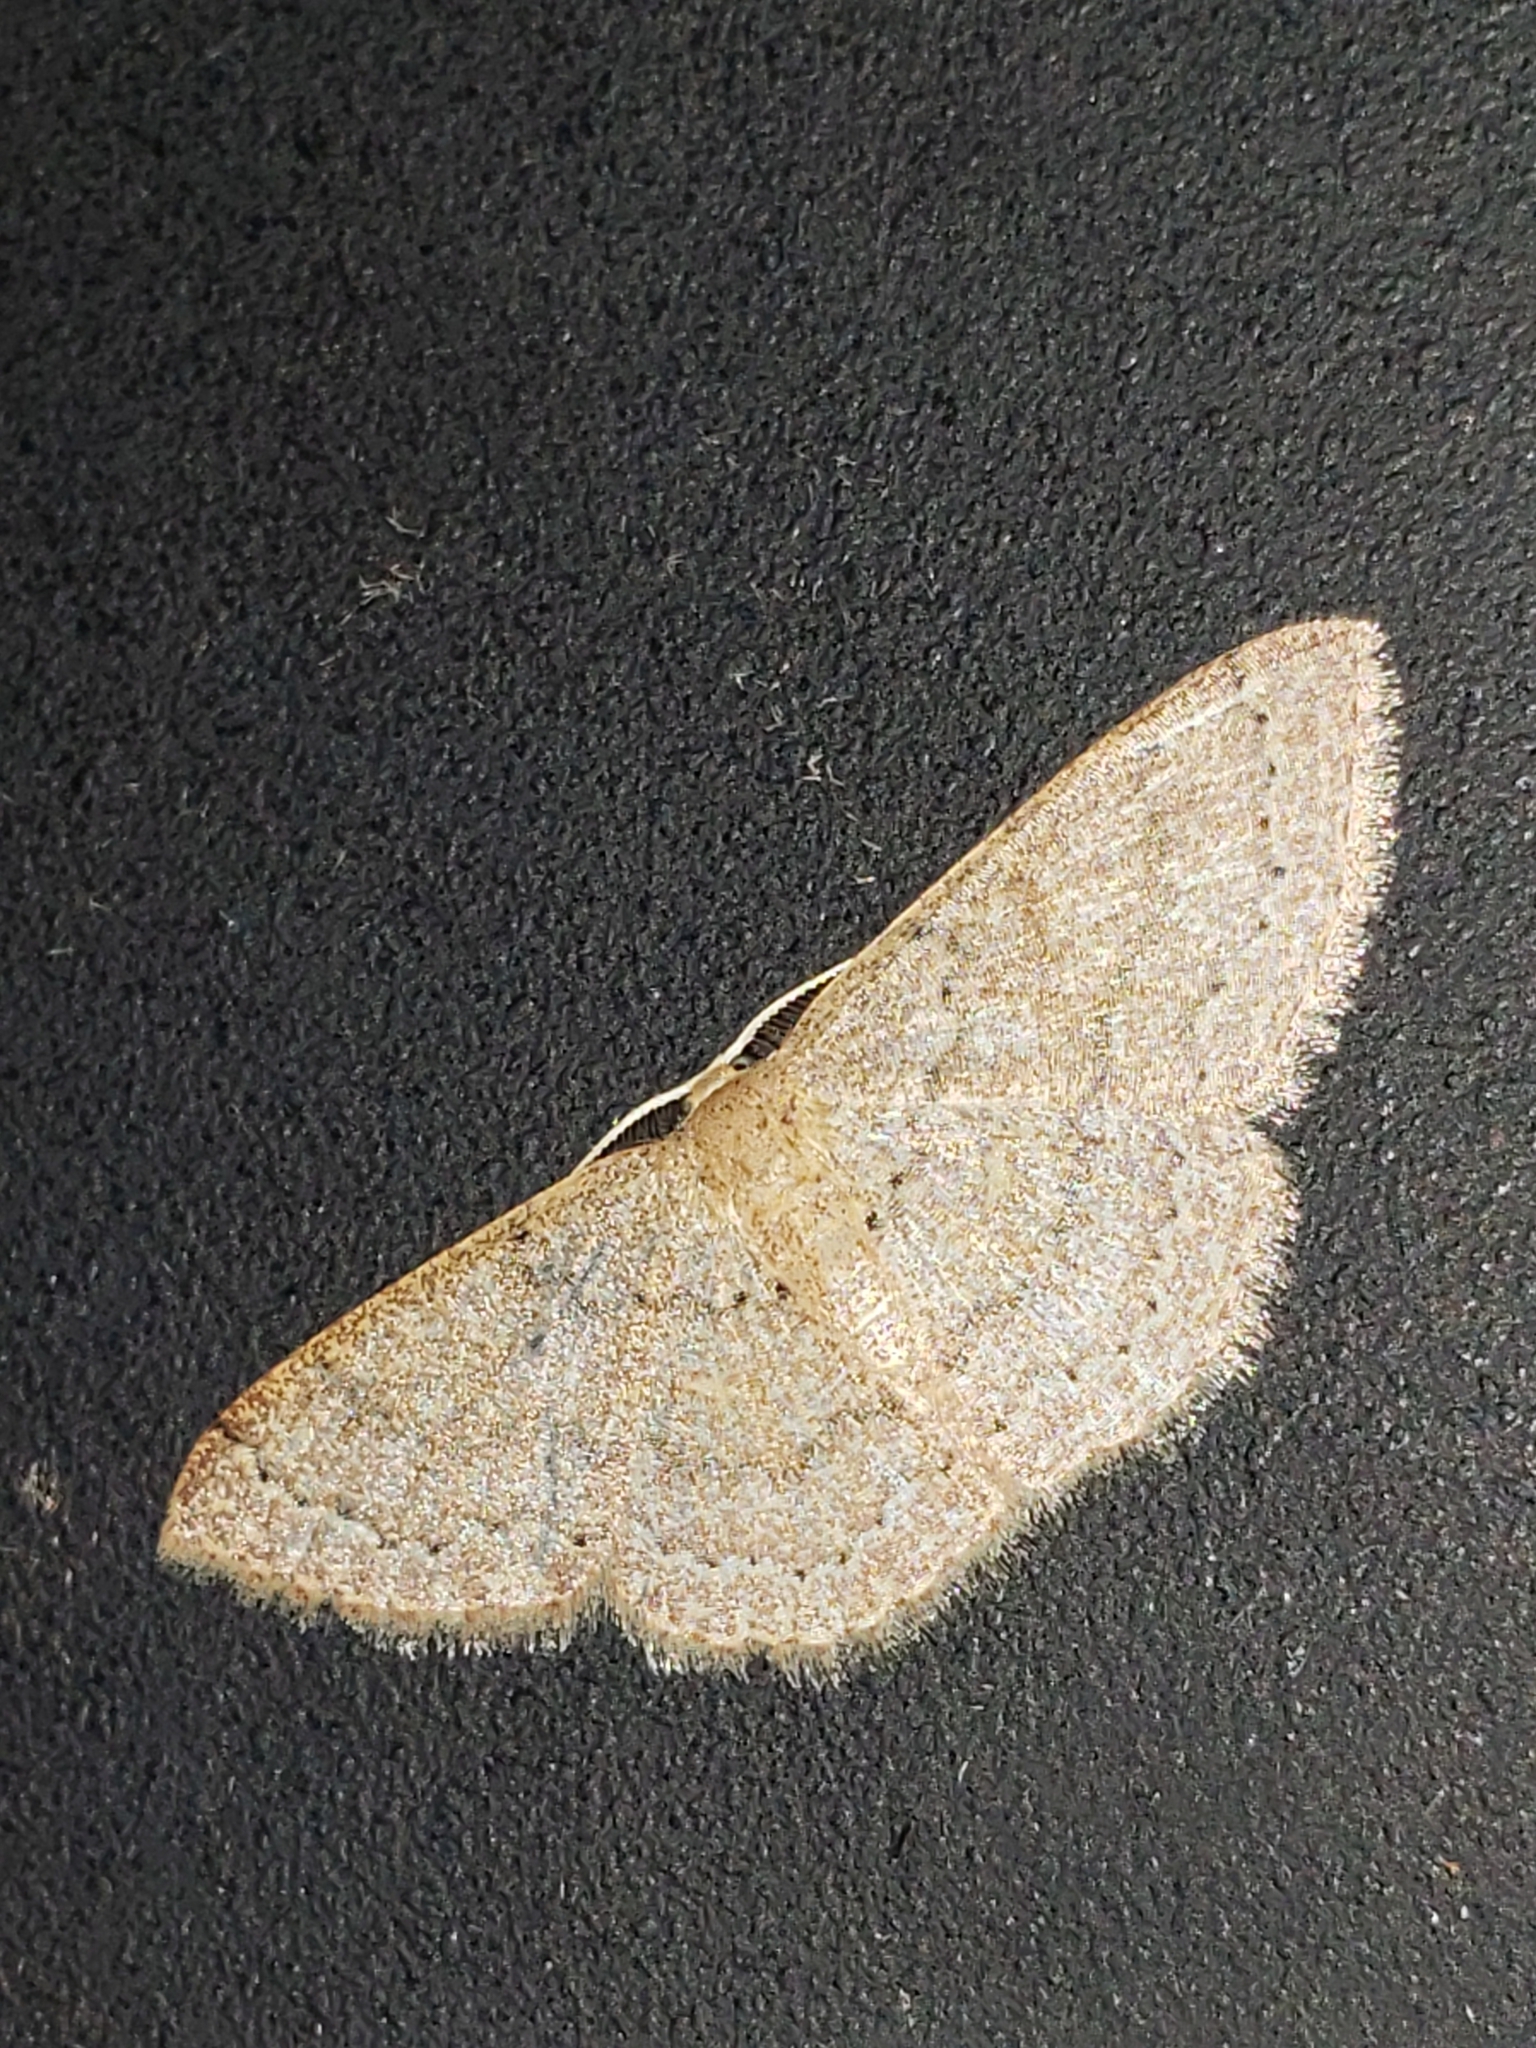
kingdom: Animalia
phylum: Arthropoda
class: Insecta
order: Lepidoptera
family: Geometridae
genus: Pleuroprucha
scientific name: Pleuroprucha insulsaria
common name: Common tan wave
